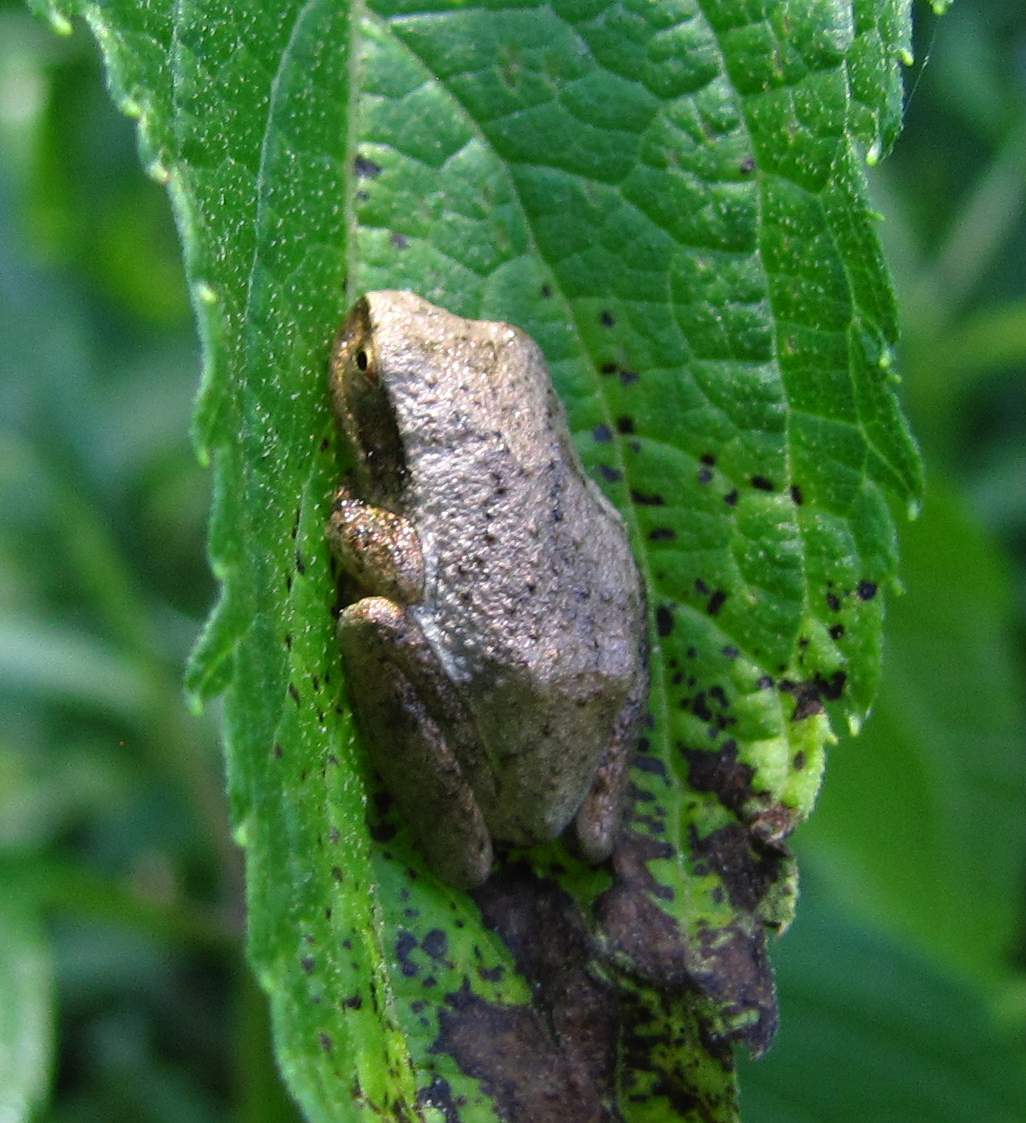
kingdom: Animalia
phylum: Chordata
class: Amphibia
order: Anura
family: Hylidae
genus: Pseudacris
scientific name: Pseudacris crucifer
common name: Spring peeper
